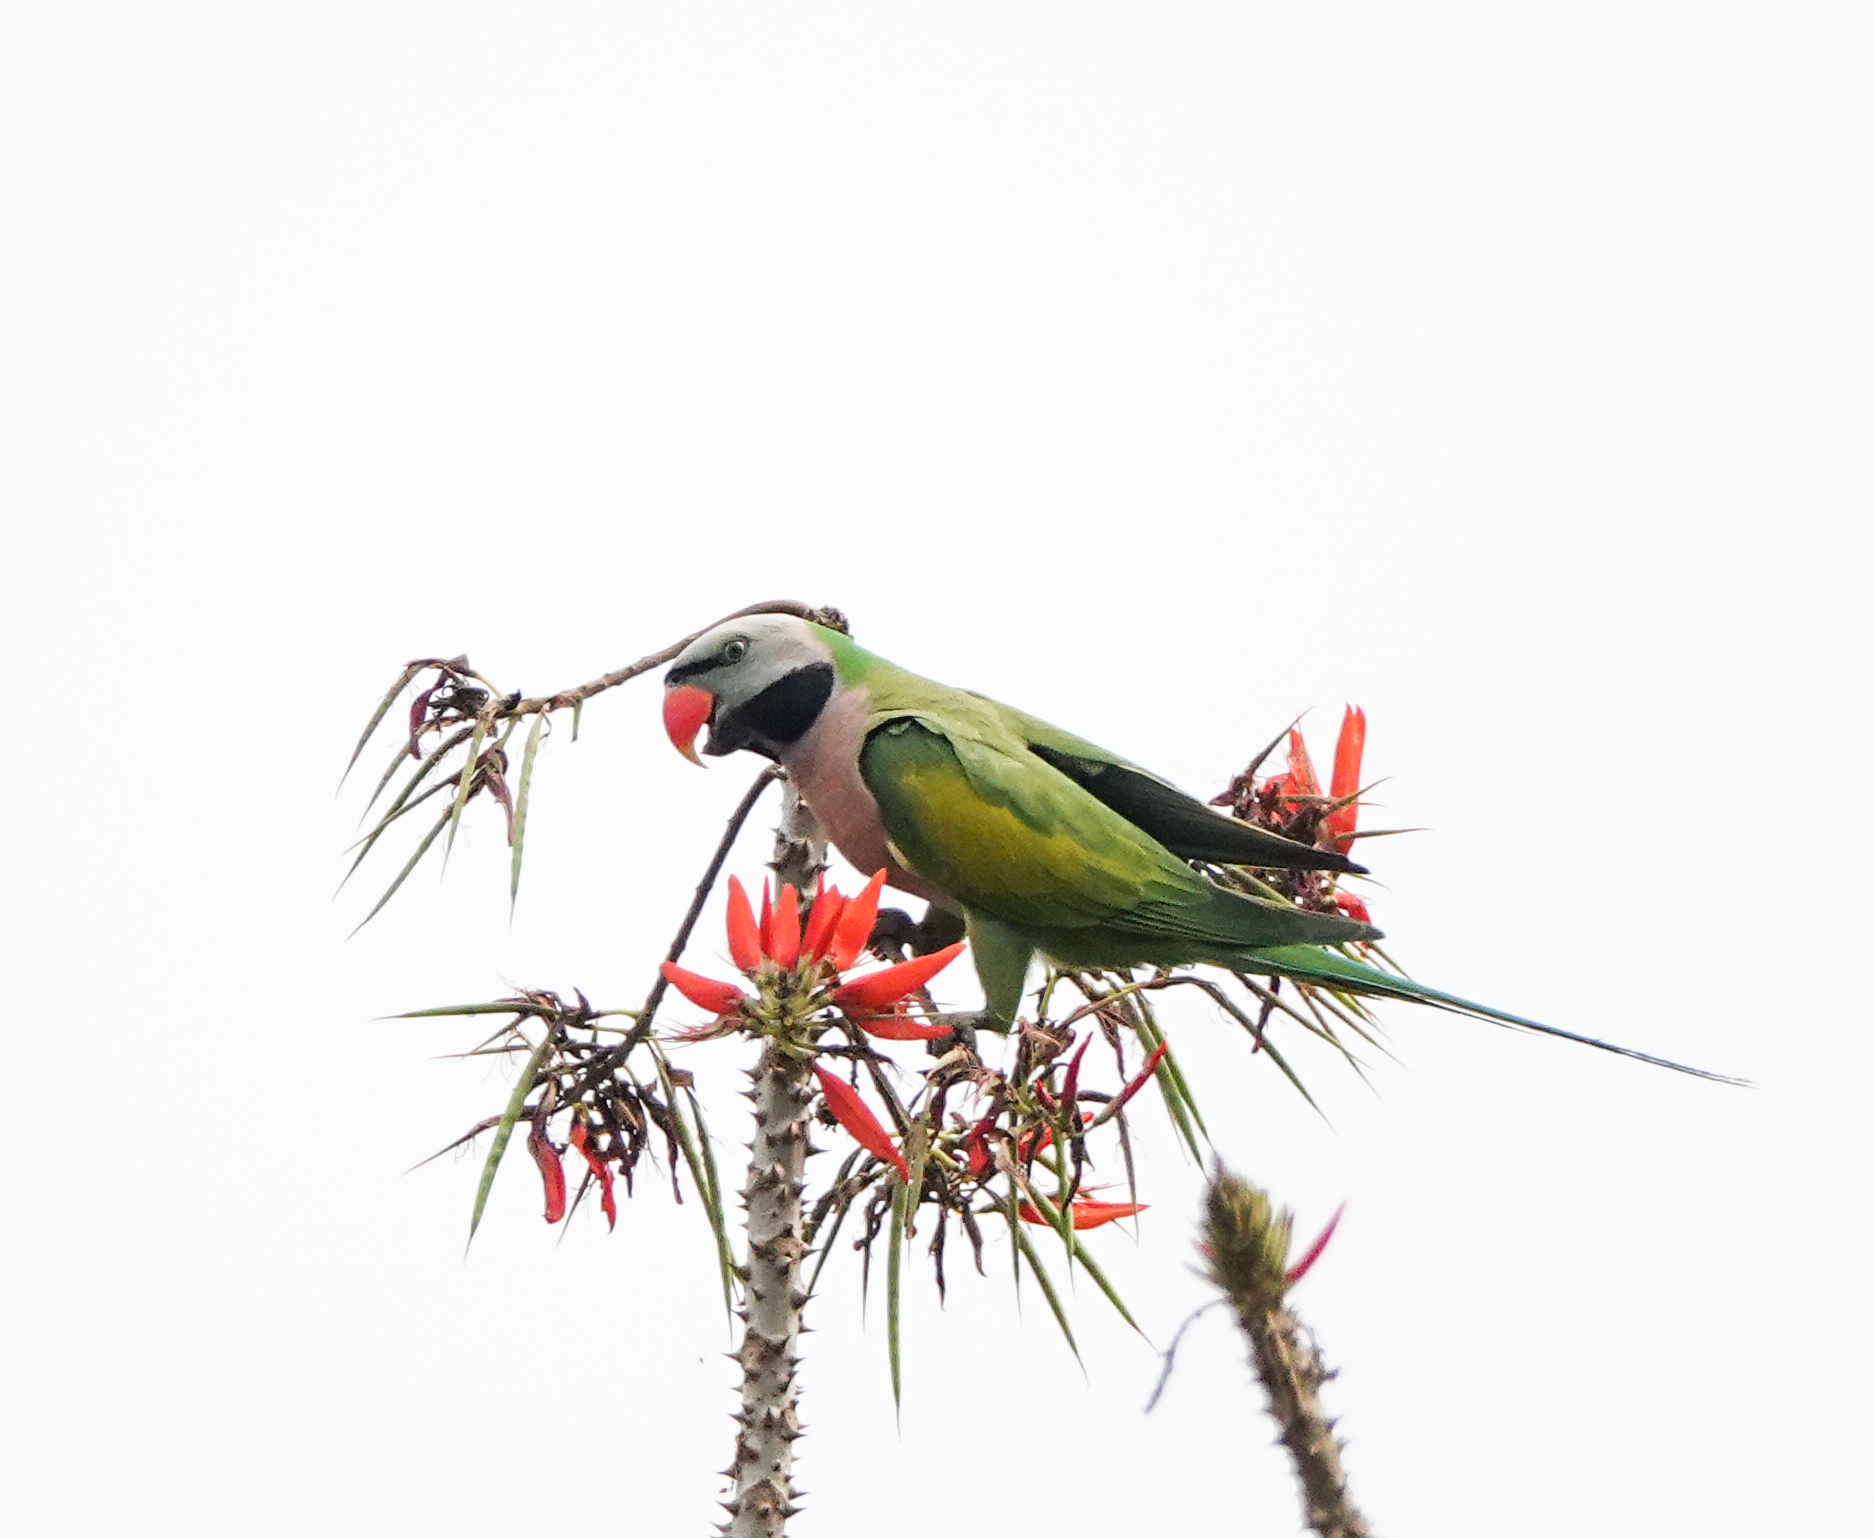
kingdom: Animalia
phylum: Chordata
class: Aves
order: Psittaciformes
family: Psittacidae
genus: Psittacula
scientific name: Psittacula alexandri
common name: Red-breasted parakeet
